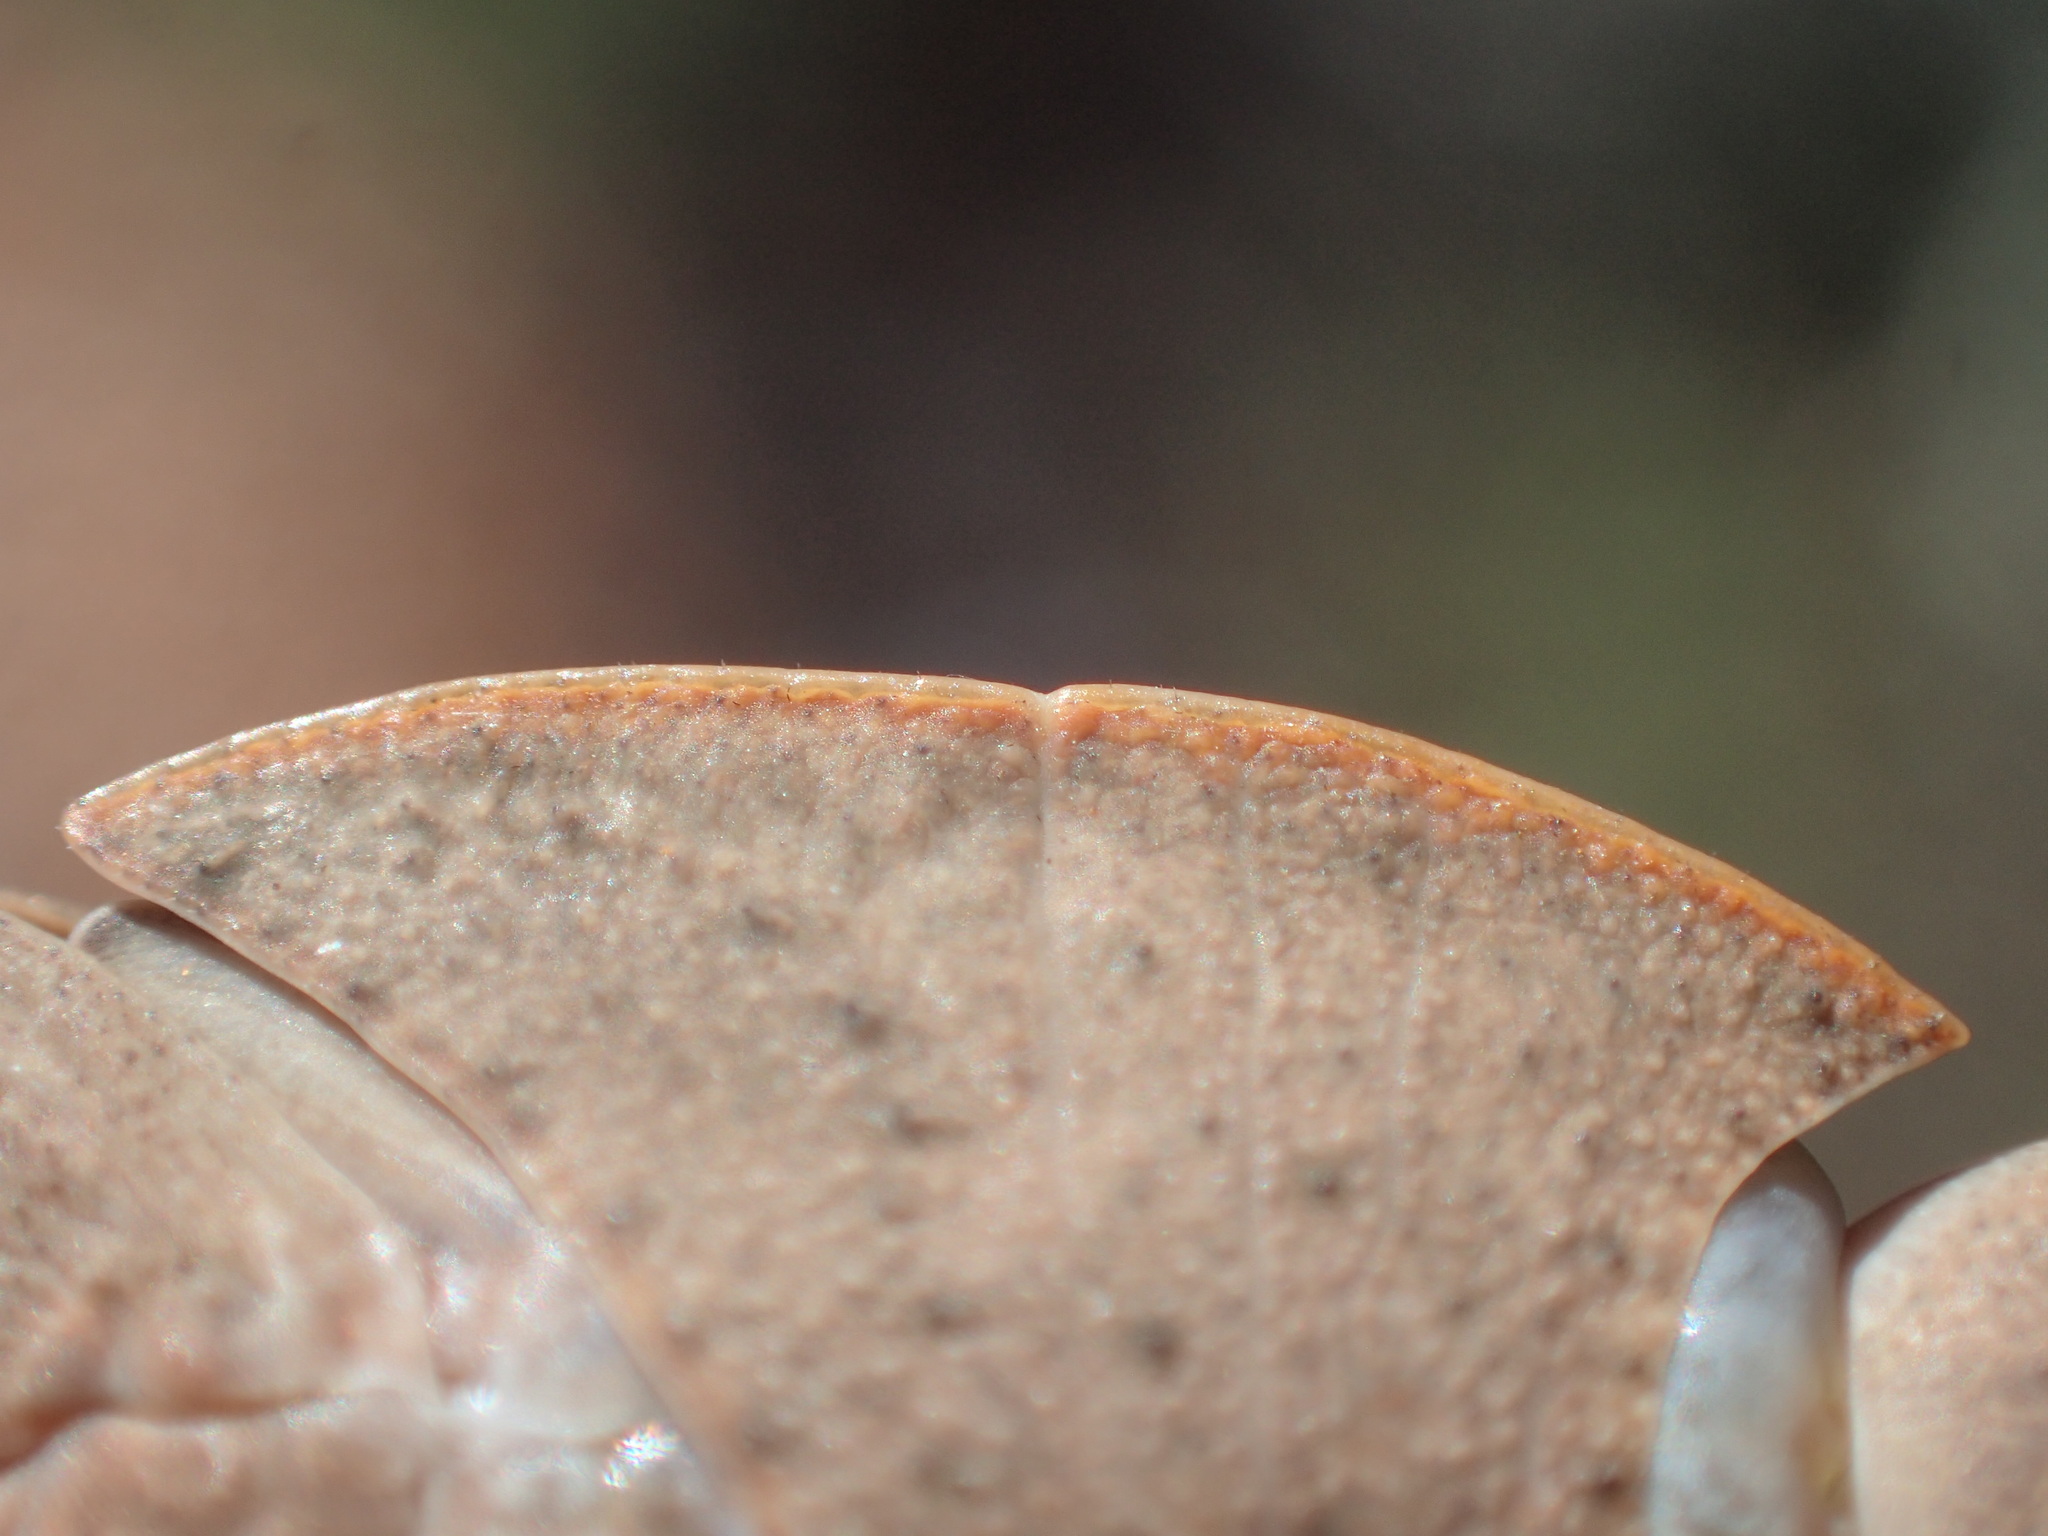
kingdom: Animalia
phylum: Arthropoda
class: Insecta
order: Orthoptera
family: Acrididae
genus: Goniaea
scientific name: Goniaea vocans
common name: Slender gumleaf grasshopper
